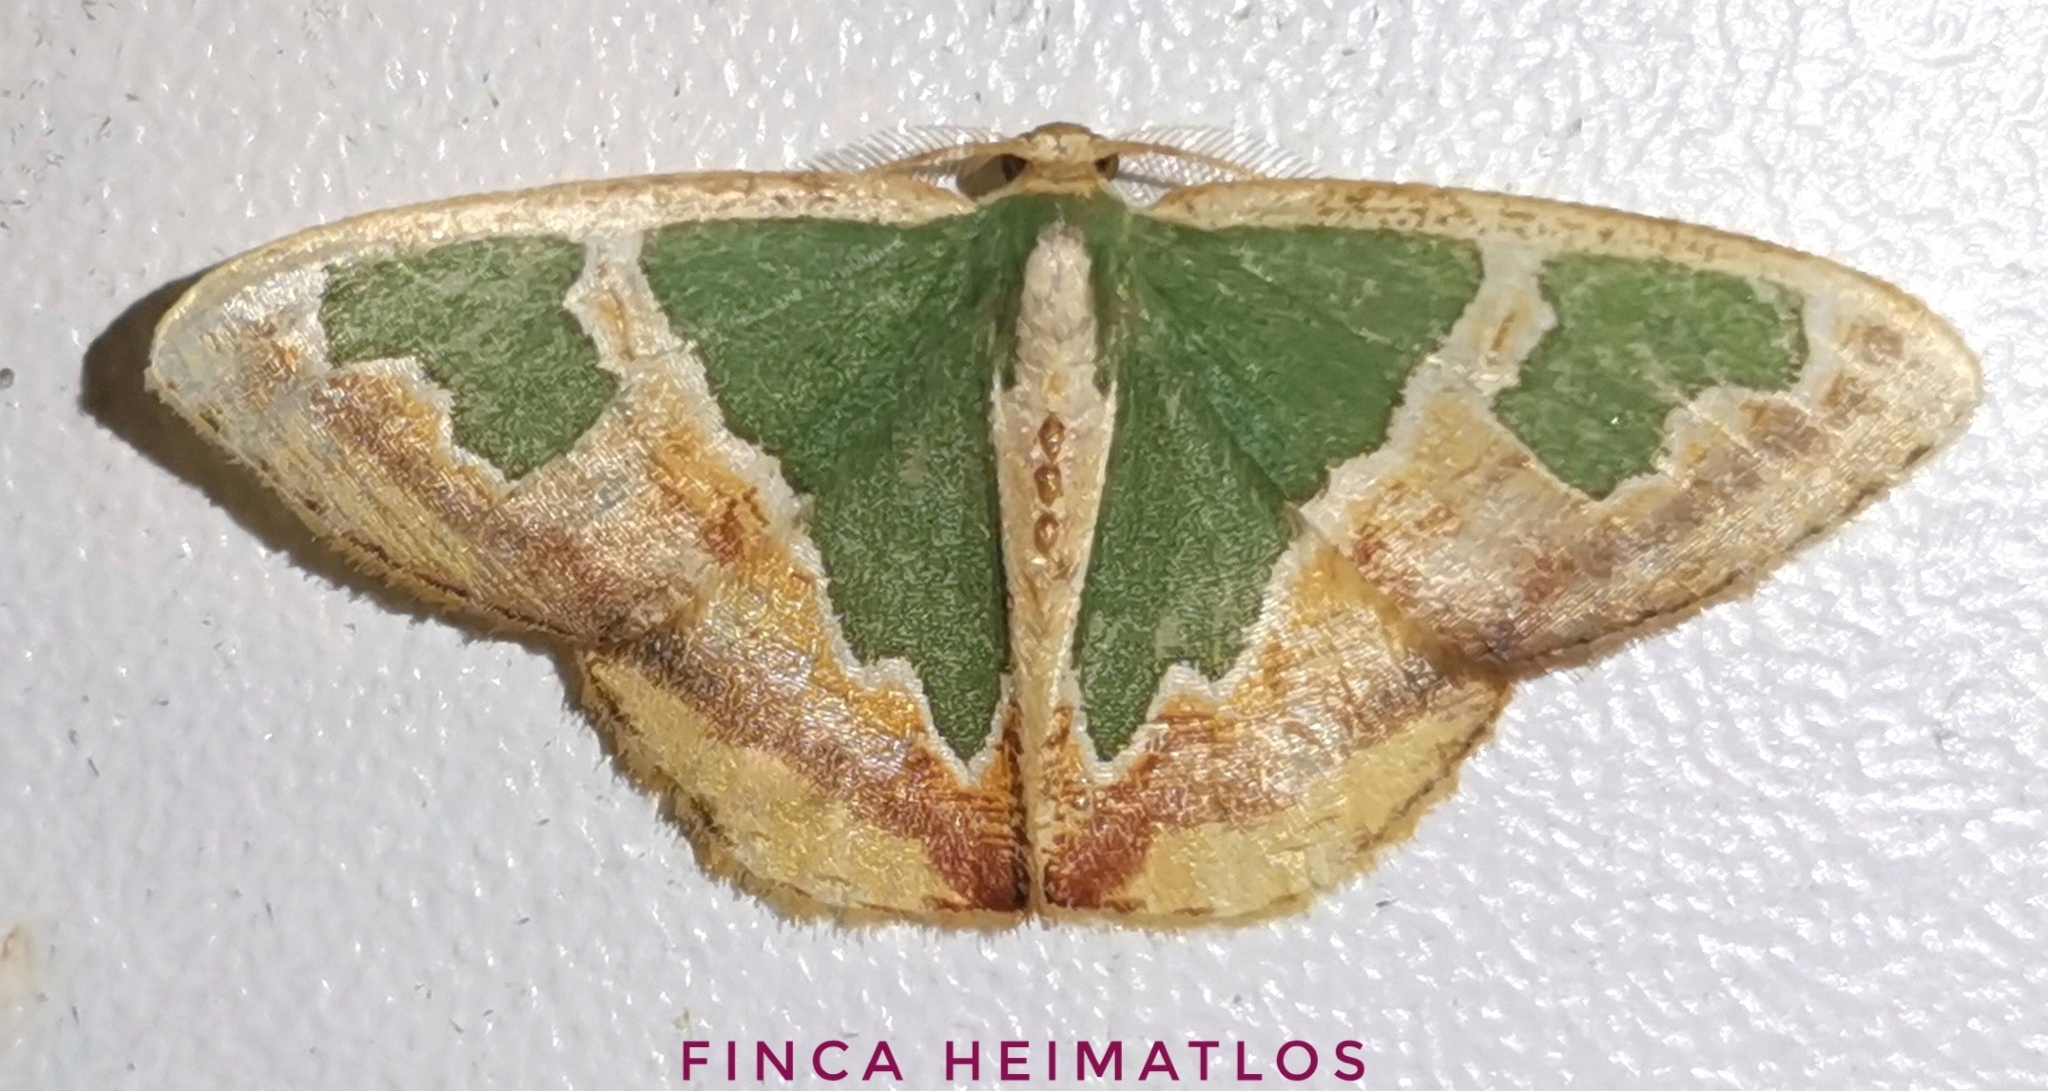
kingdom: Animalia
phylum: Arthropoda
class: Insecta
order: Lepidoptera
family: Geometridae
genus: Oospila
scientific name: Oospila venezuelata
